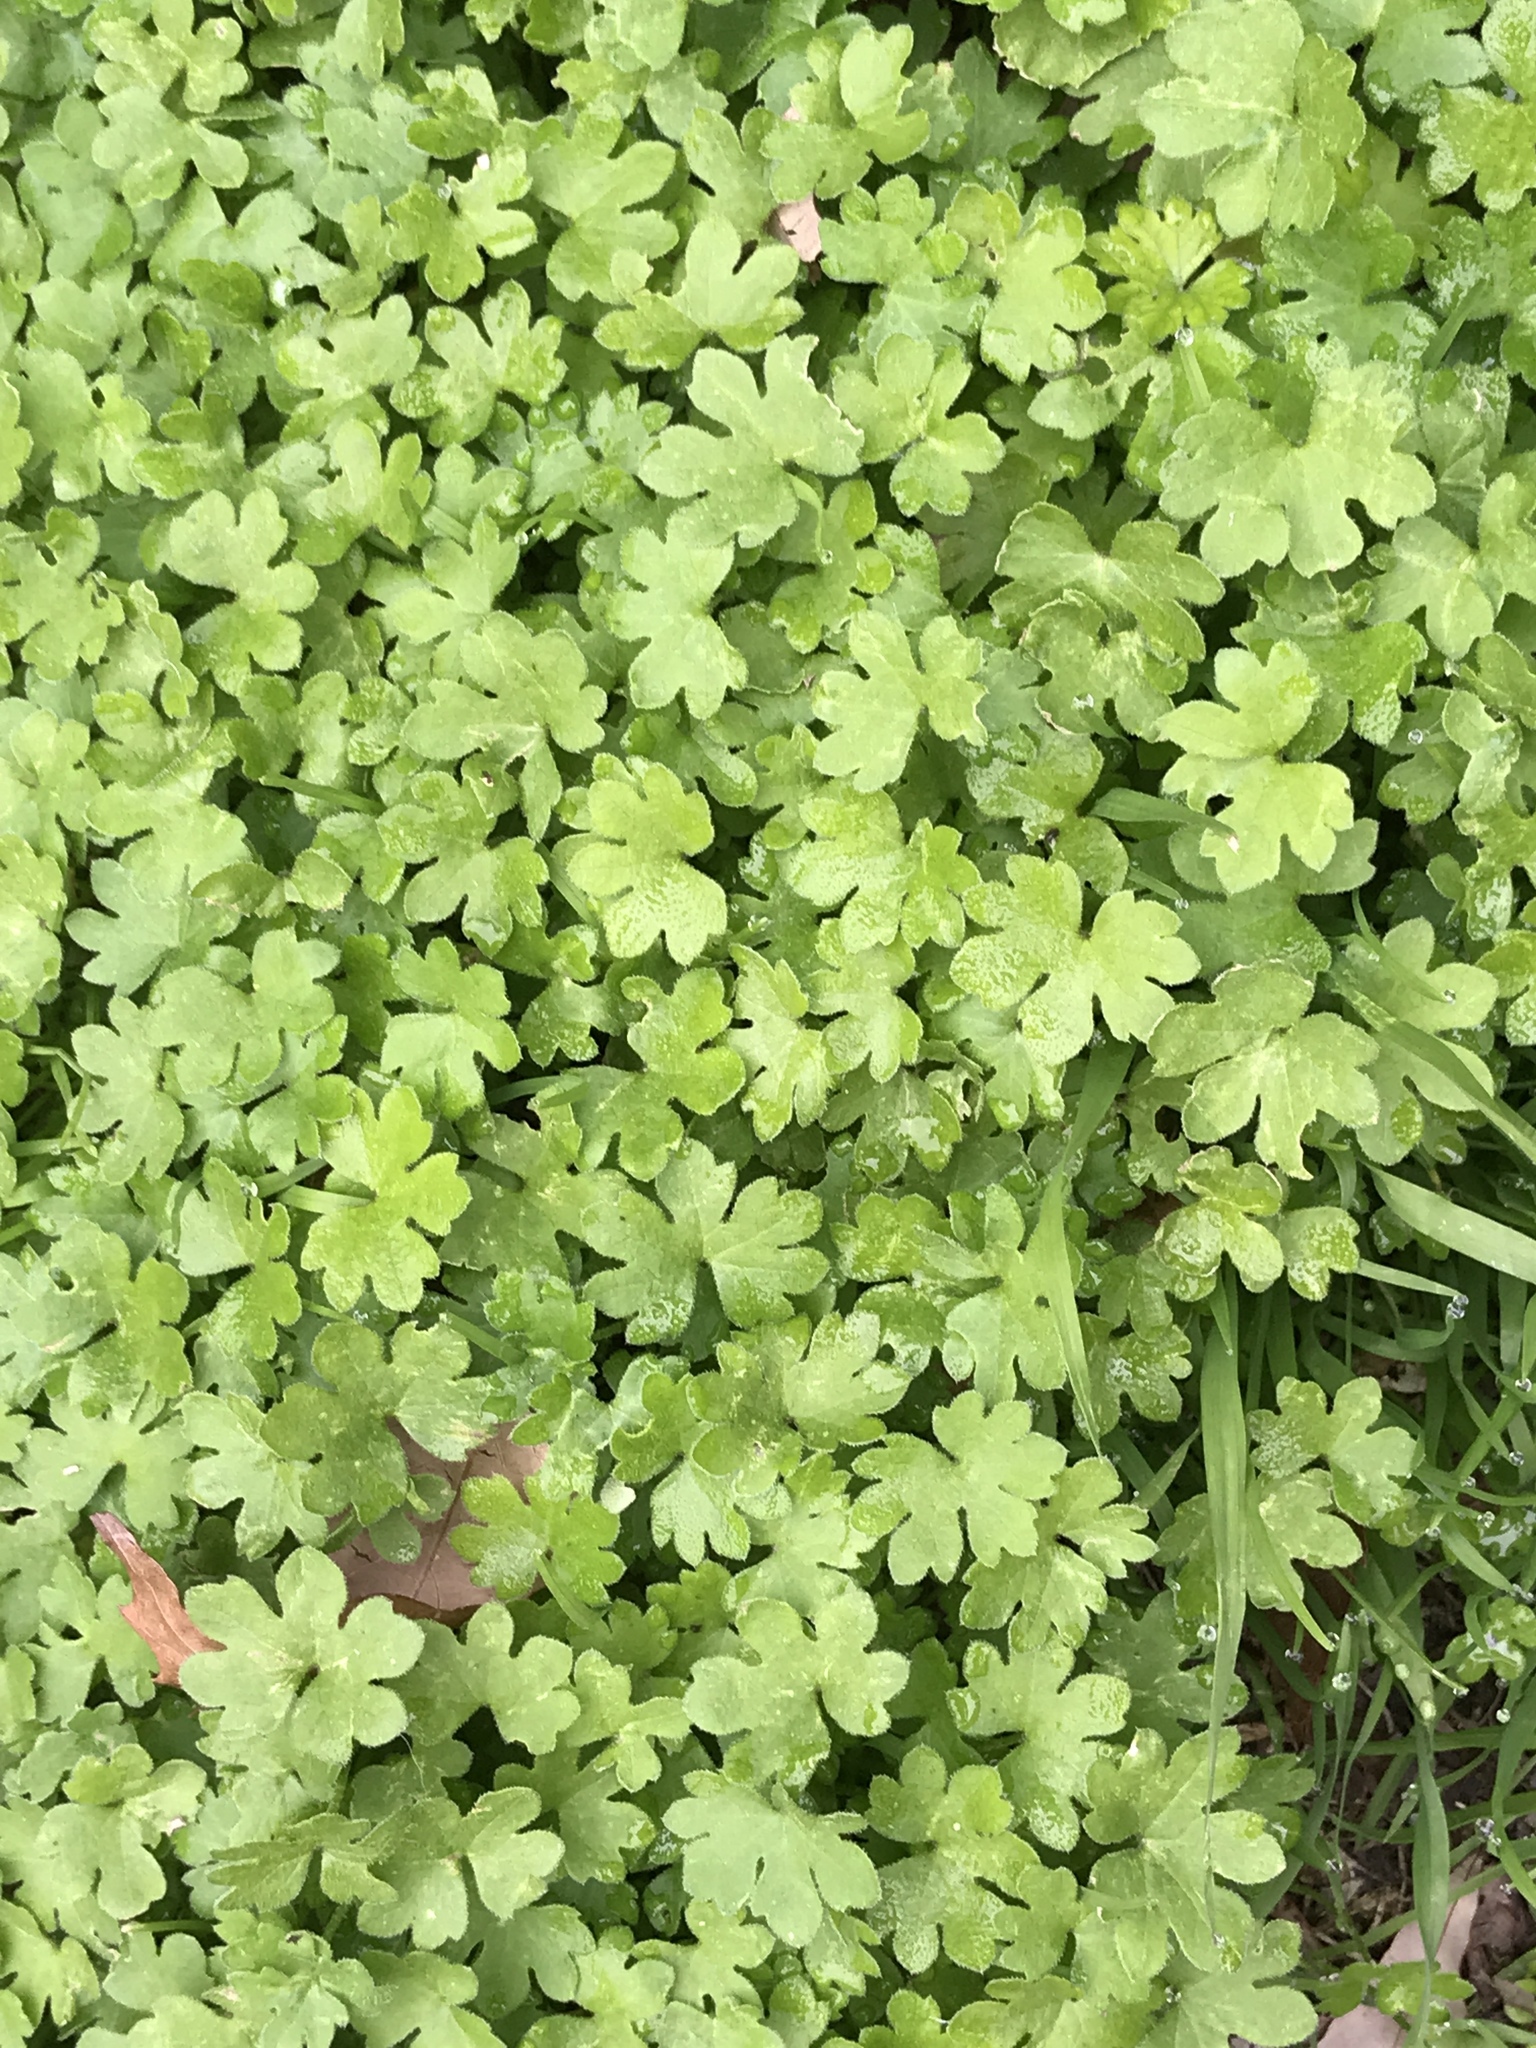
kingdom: Plantae
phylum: Tracheophyta
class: Magnoliopsida
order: Apiales
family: Apiaceae
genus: Bowlesia
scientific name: Bowlesia incana
